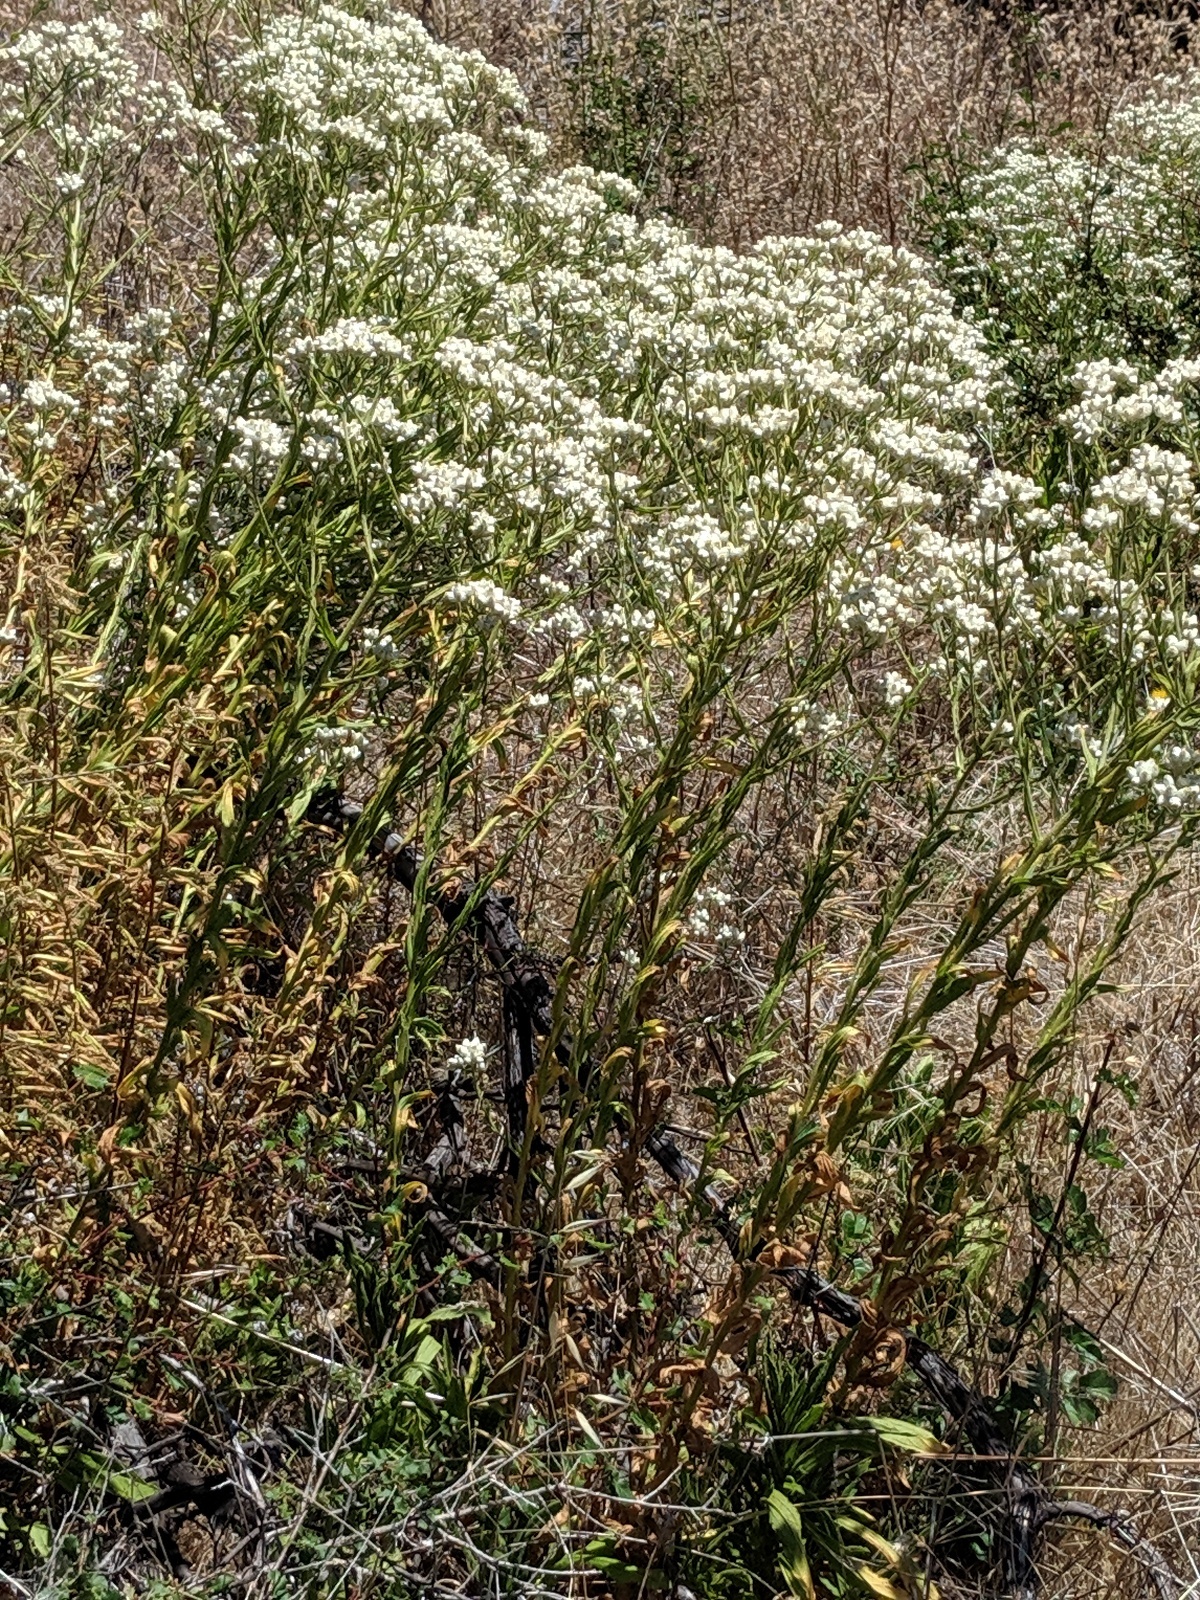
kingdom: Plantae
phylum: Tracheophyta
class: Magnoliopsida
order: Asterales
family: Asteraceae
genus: Pseudognaphalium
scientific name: Pseudognaphalium californicum
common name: California rabbit-tobacco
